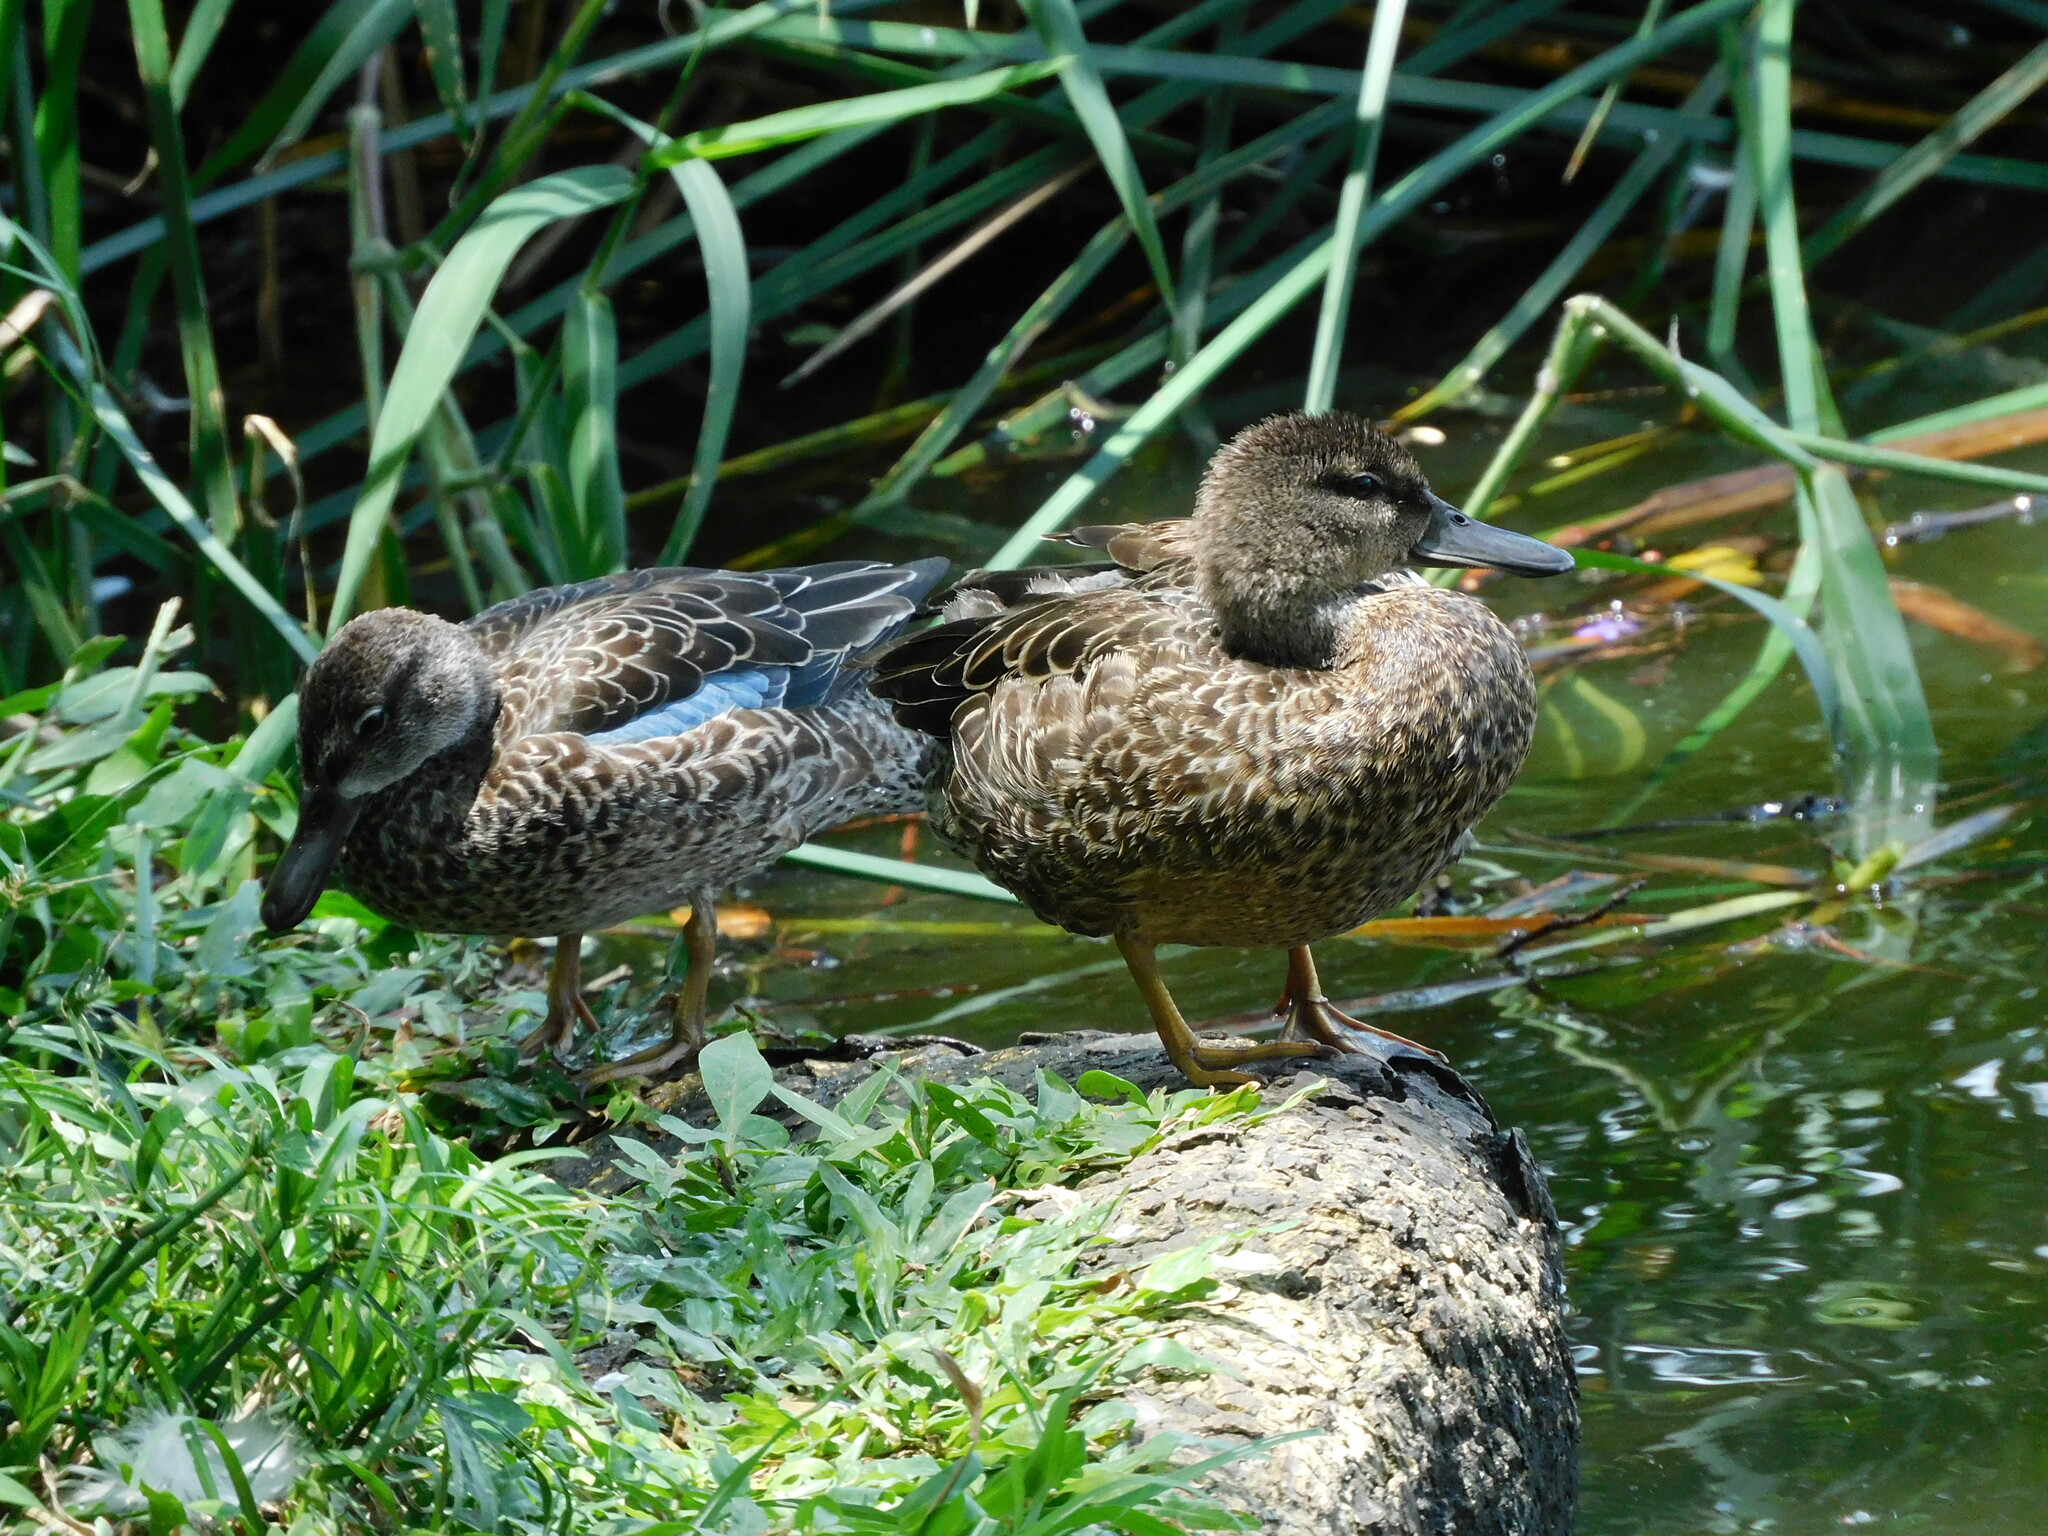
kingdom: Animalia
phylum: Chordata
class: Aves
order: Anseriformes
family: Anatidae
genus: Spatula
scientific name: Spatula discors
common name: Blue-winged teal
